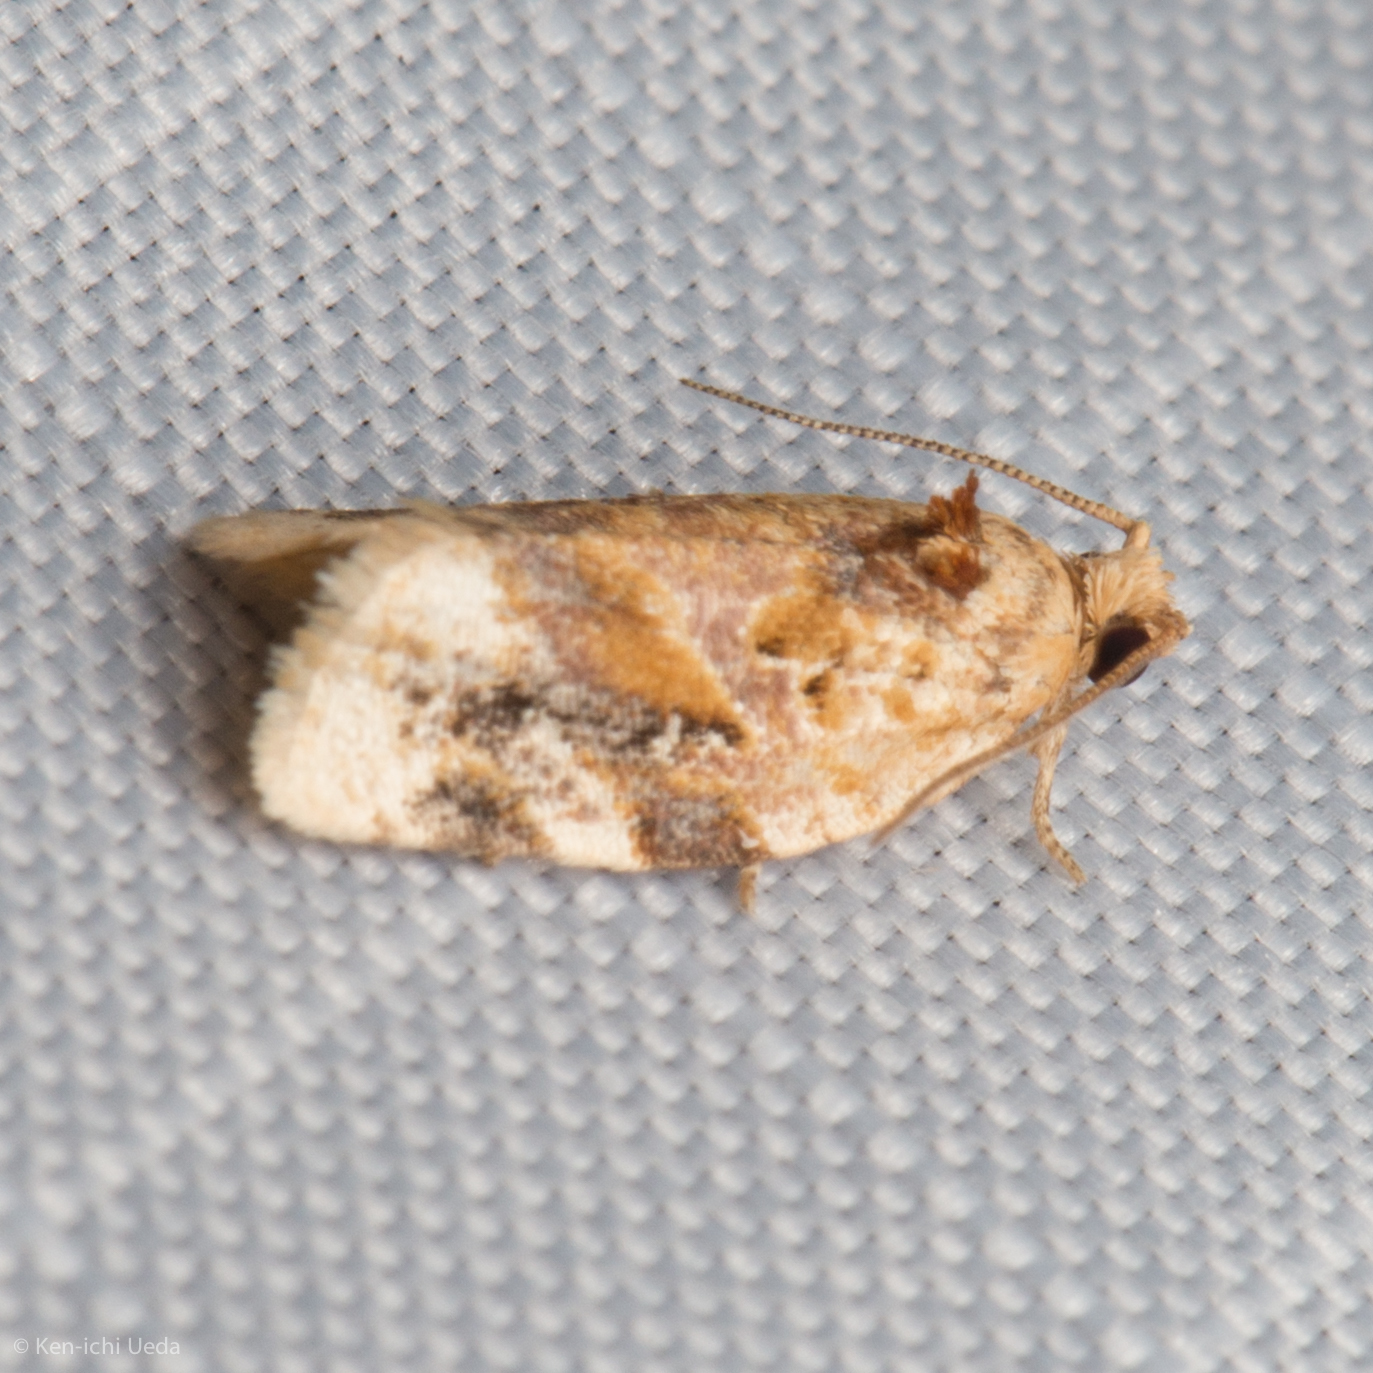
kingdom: Animalia
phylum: Arthropoda
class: Insecta
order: Lepidoptera
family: Tortricidae
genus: Argyrotaenia
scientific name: Argyrotaenia velutinana
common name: Red-banded leafroller moth
